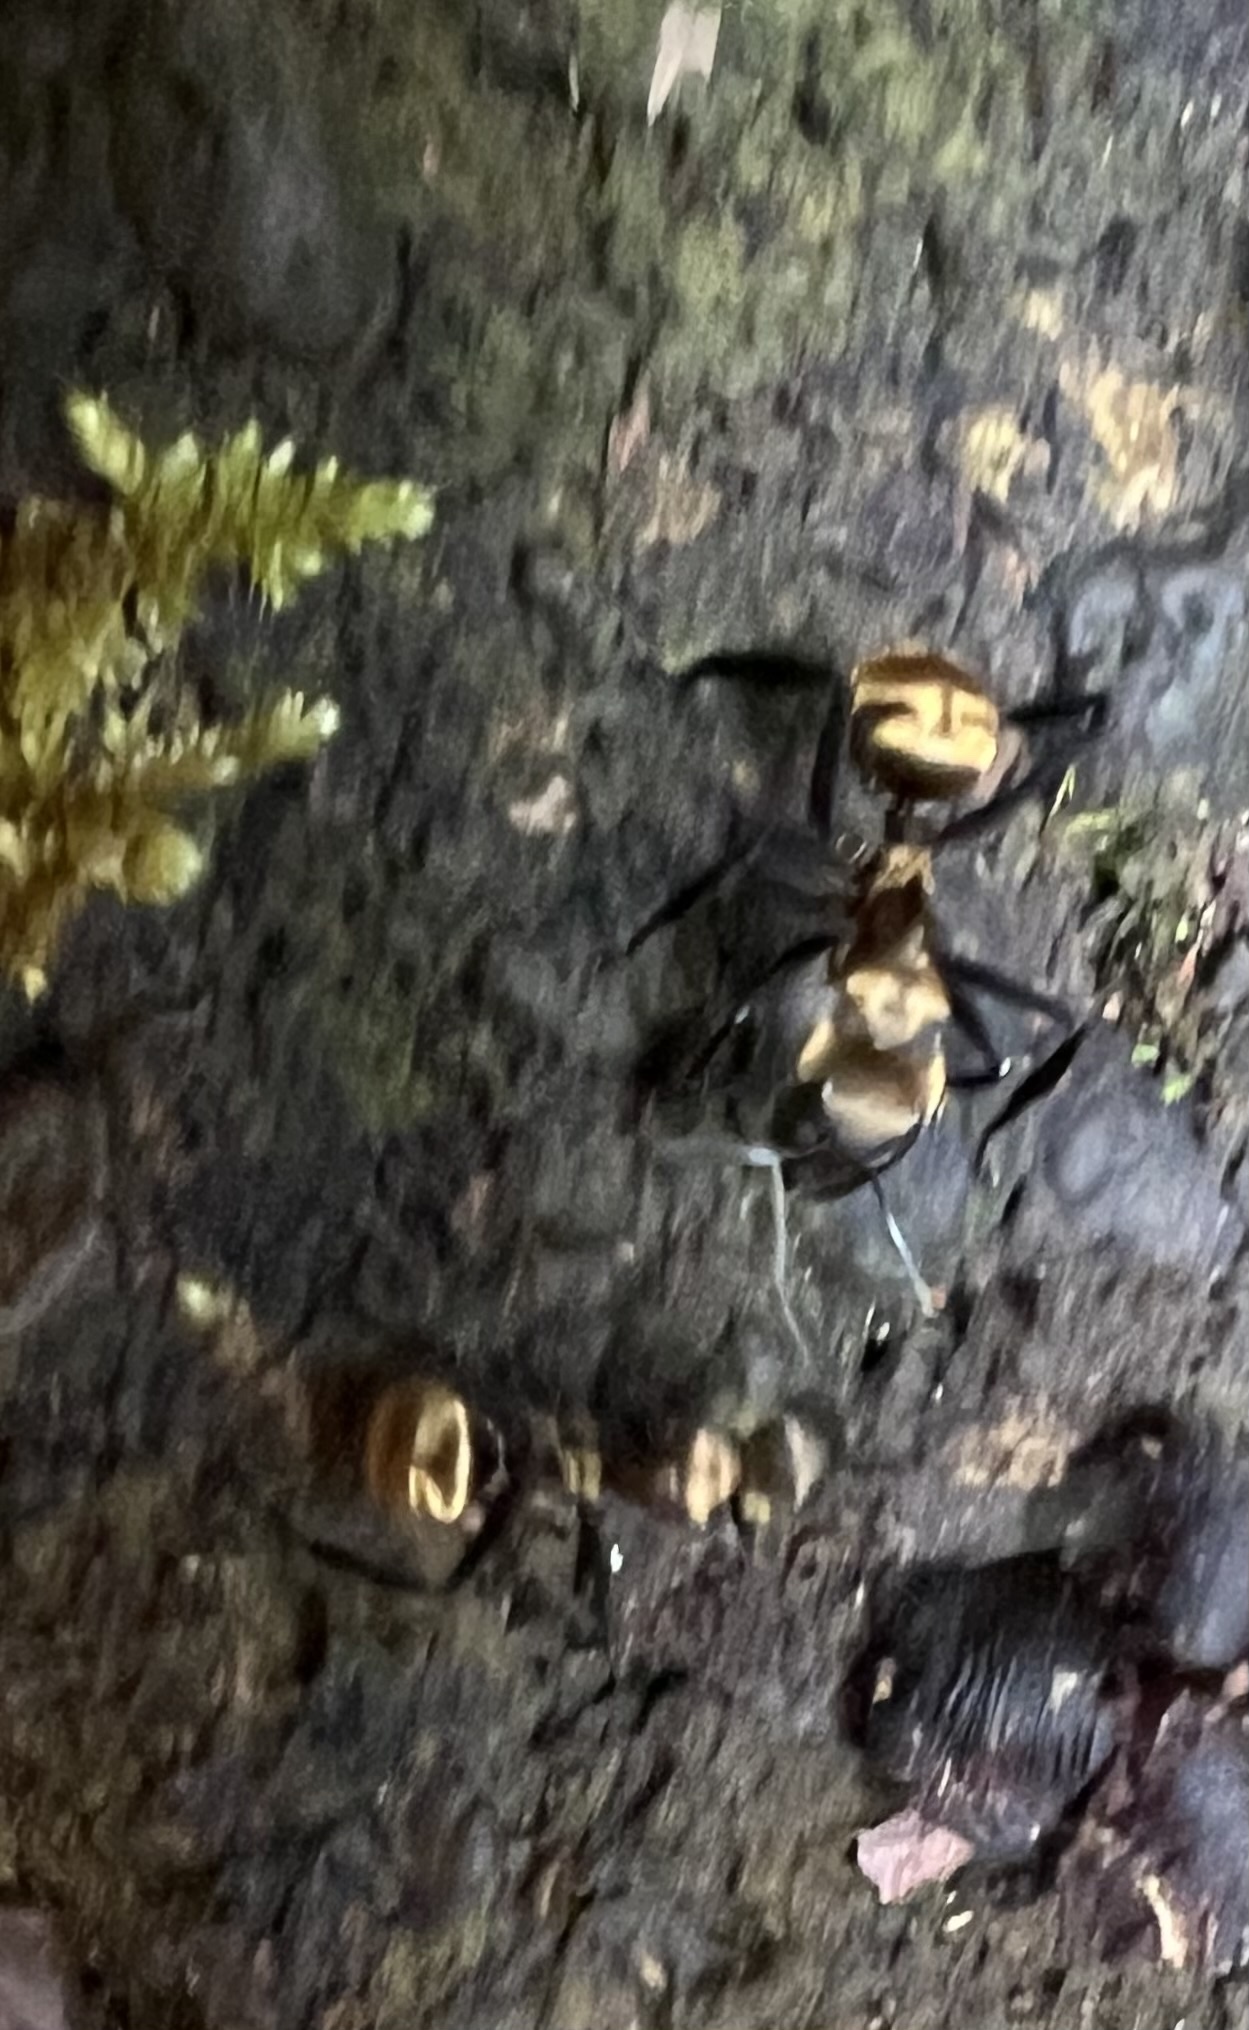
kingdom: Animalia
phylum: Arthropoda
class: Insecta
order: Hymenoptera
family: Formicidae
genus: Camponotus
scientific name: Camponotus sericeiventris
